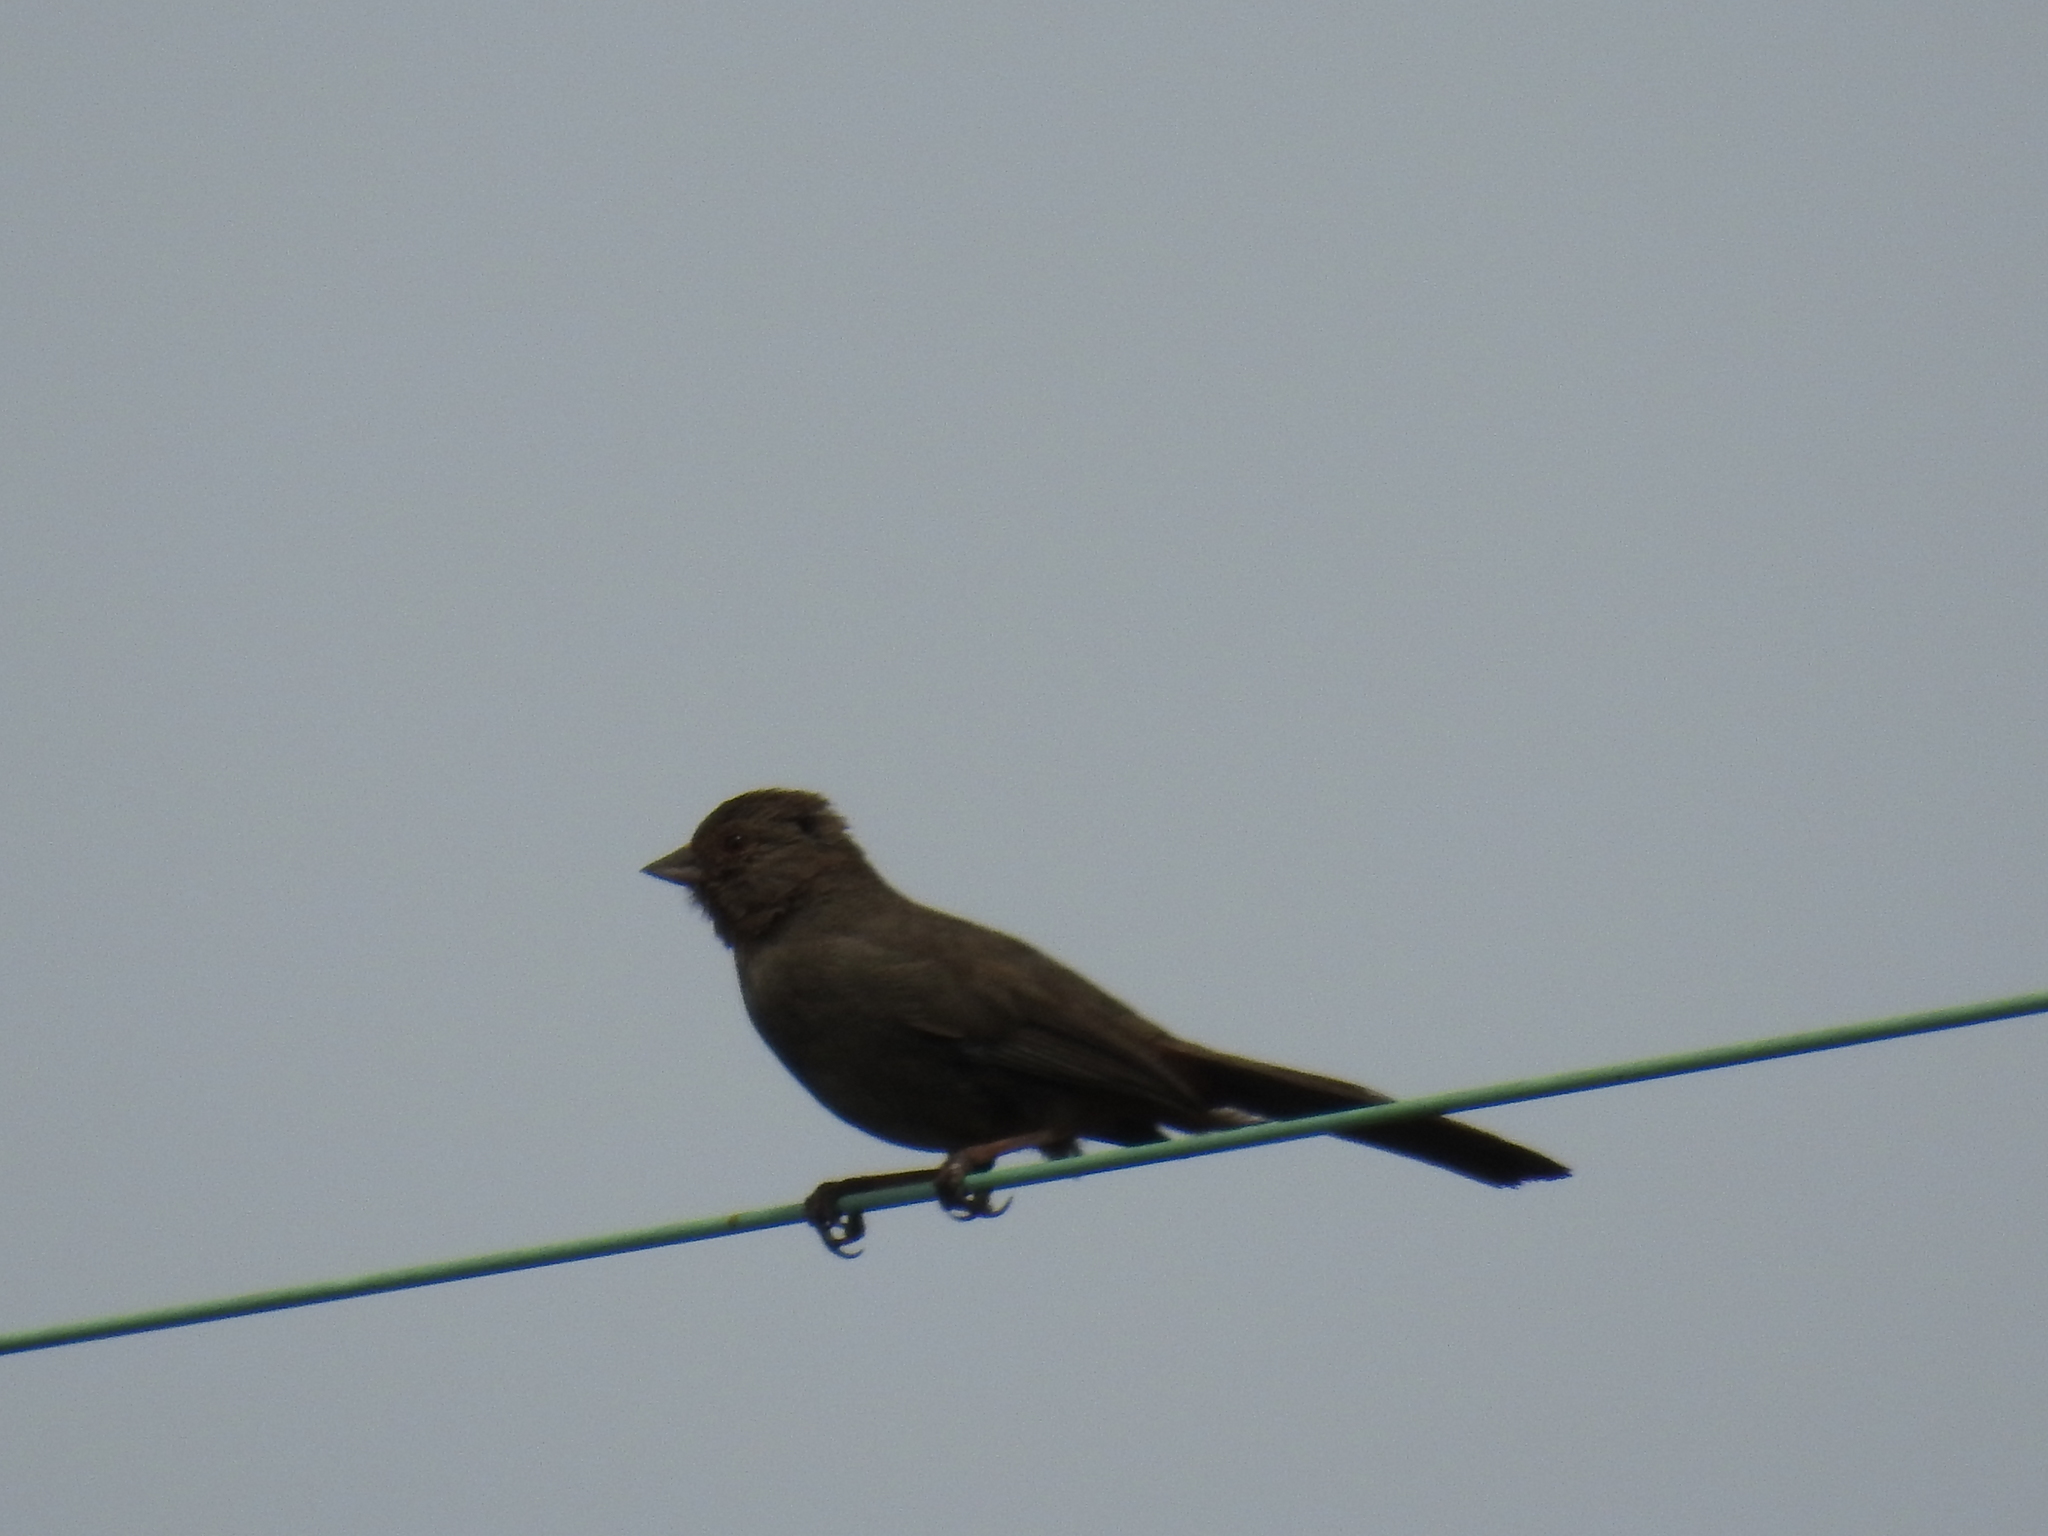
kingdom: Animalia
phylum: Chordata
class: Aves
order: Passeriformes
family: Passerellidae
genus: Melozone
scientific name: Melozone crissalis
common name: California towhee
